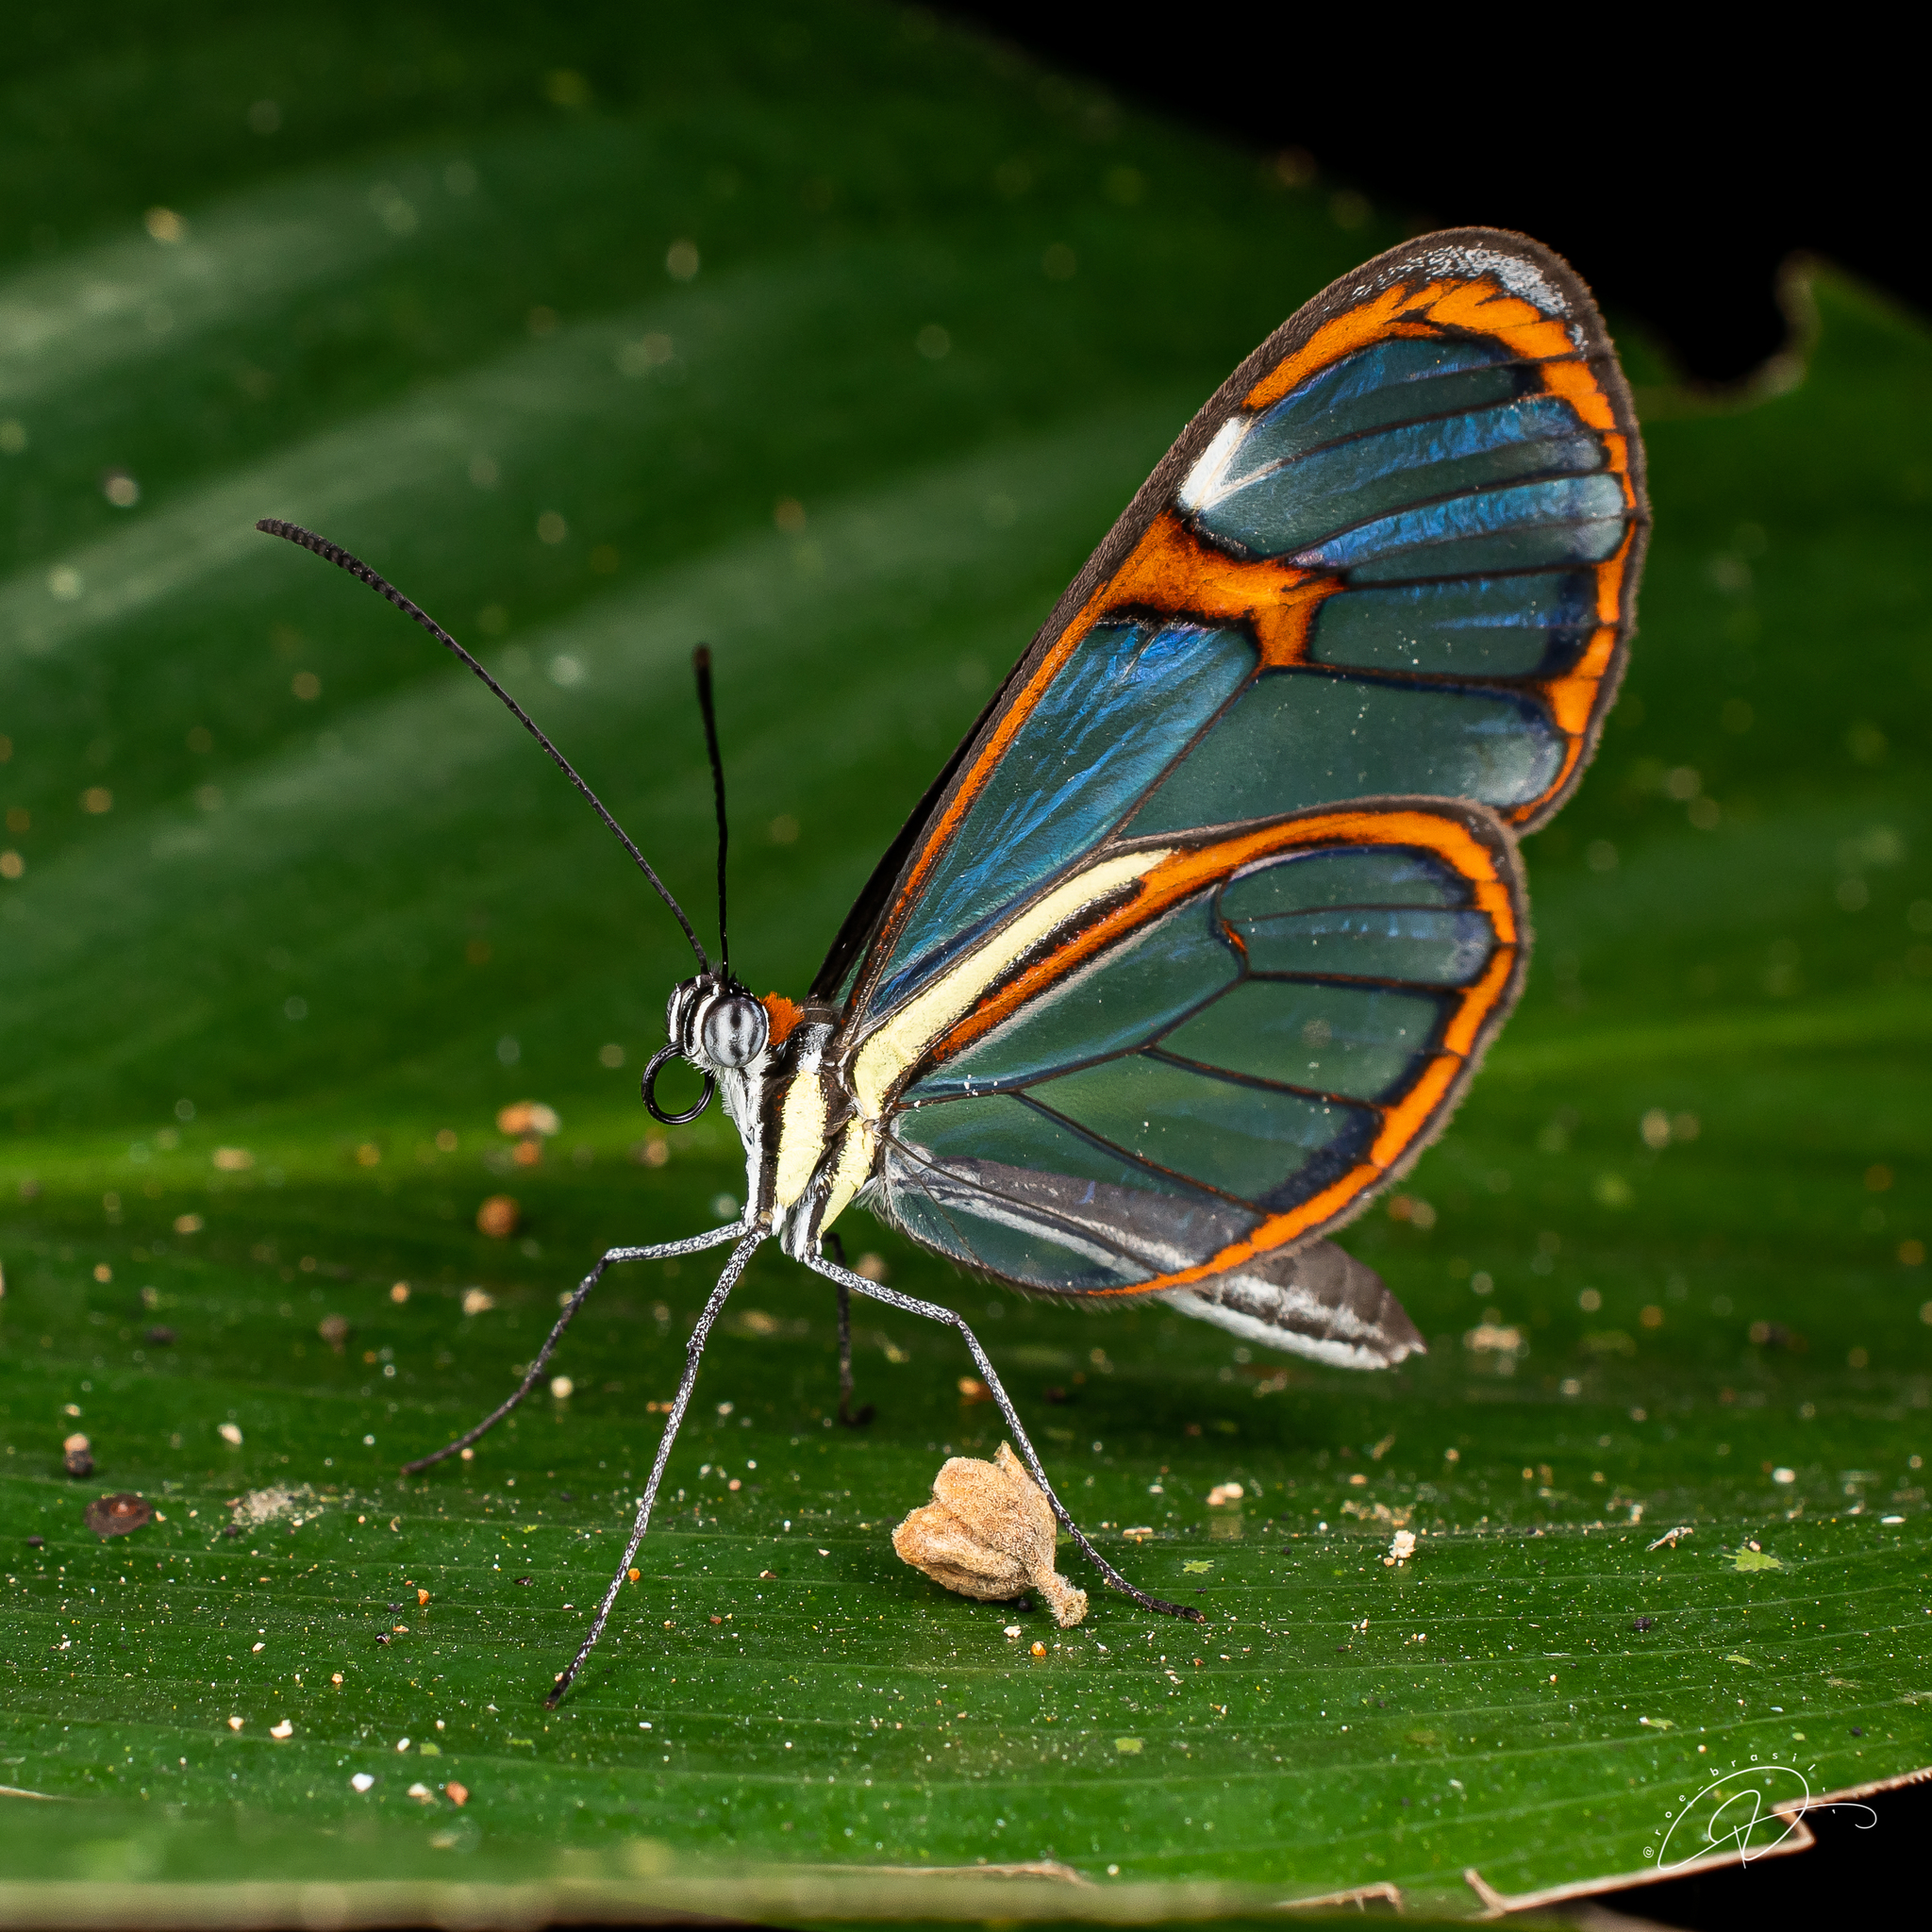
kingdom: Animalia
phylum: Arthropoda
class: Insecta
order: Lepidoptera
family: Nymphalidae
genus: Ithomia
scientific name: Ithomia drymo
